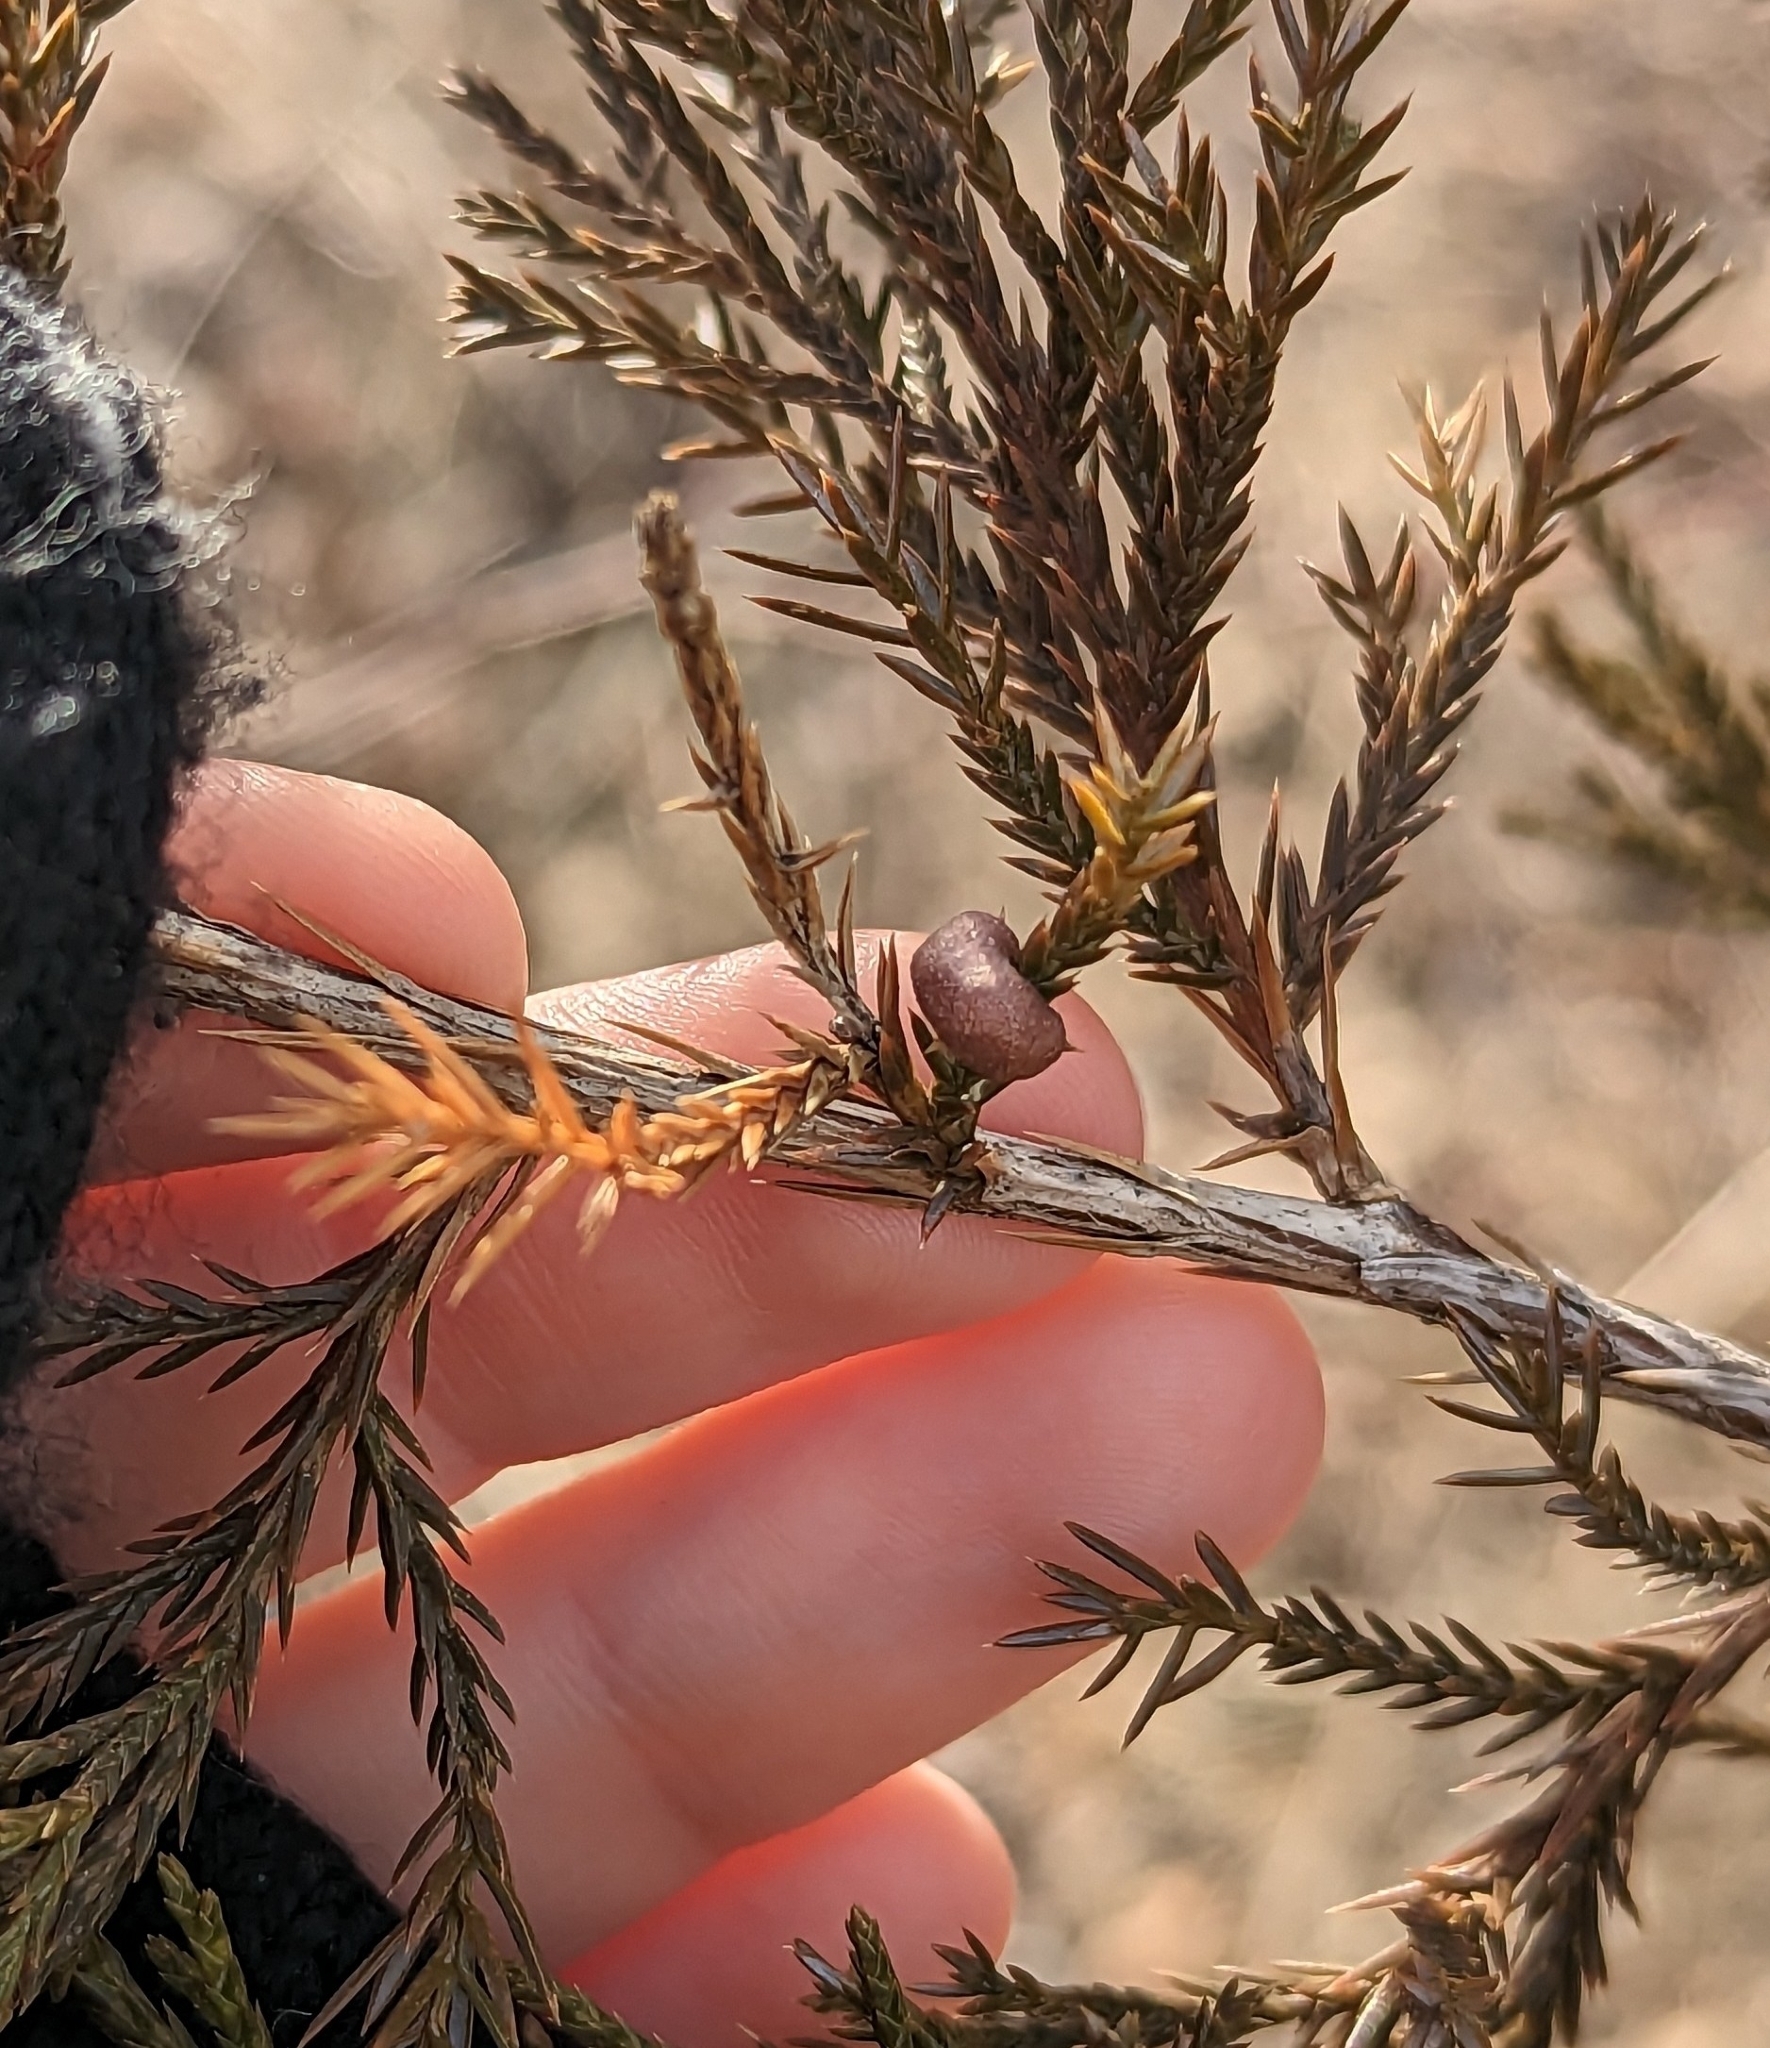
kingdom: Fungi
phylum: Basidiomycota
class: Pucciniomycetes
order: Pucciniales
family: Gymnosporangiaceae
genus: Gymnosporangium
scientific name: Gymnosporangium juniperi-virginianae
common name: Juniper-apple rust
